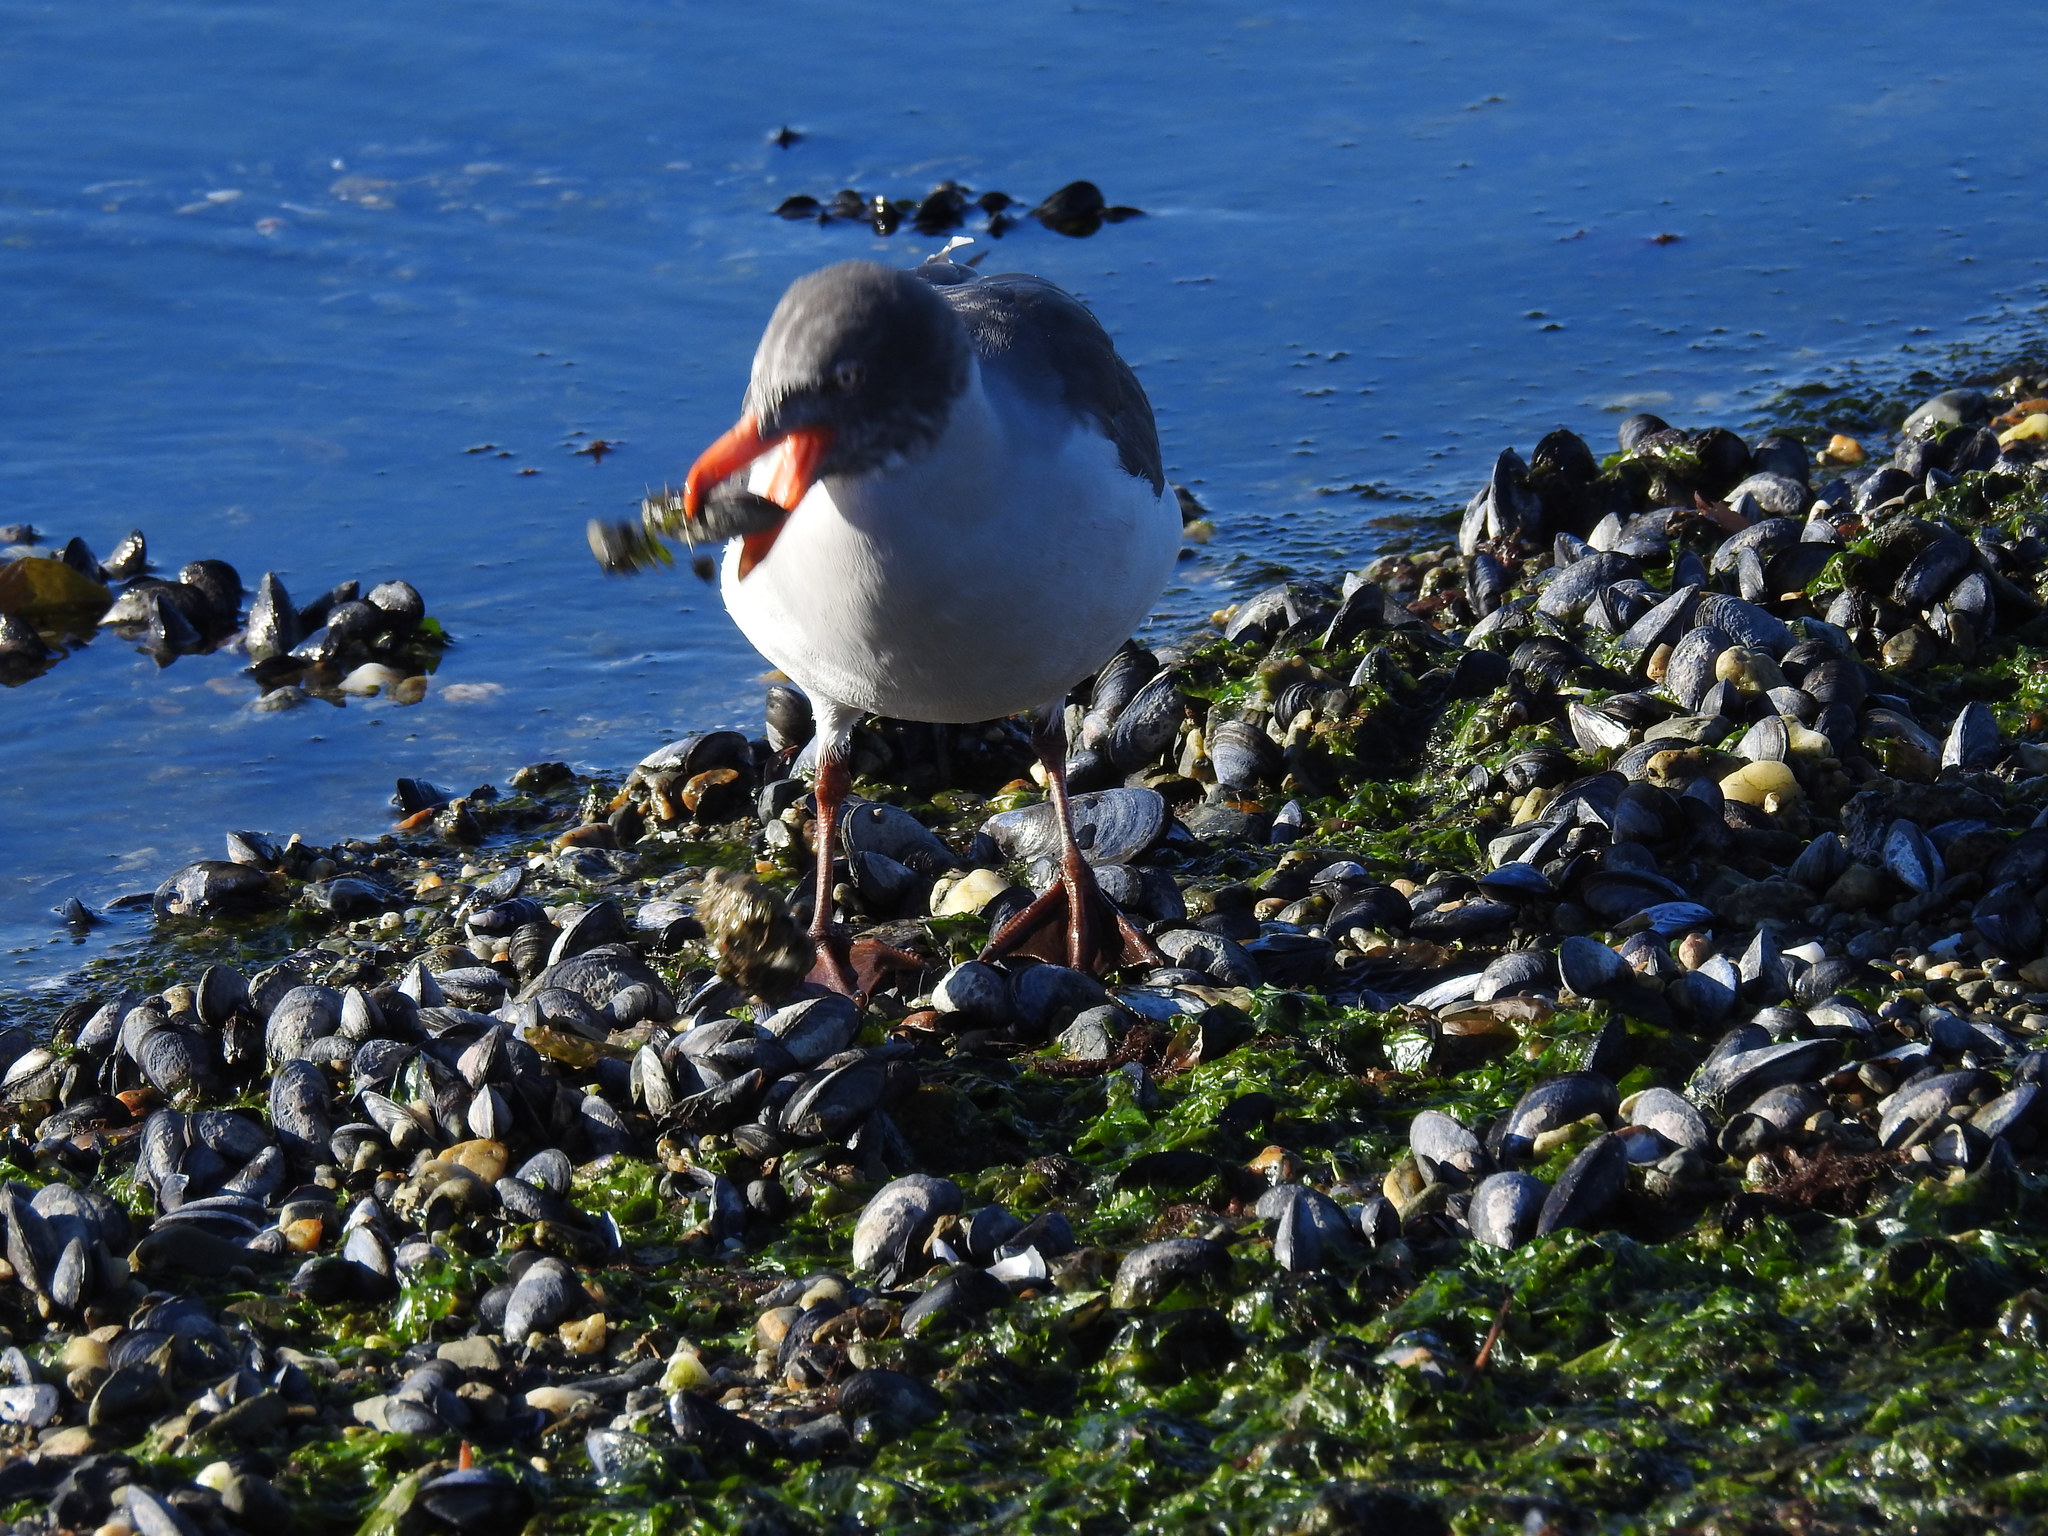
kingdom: Animalia
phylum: Chordata
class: Aves
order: Charadriiformes
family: Laridae
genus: Leucophaeus
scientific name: Leucophaeus scoresbii
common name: Dolphin gull
